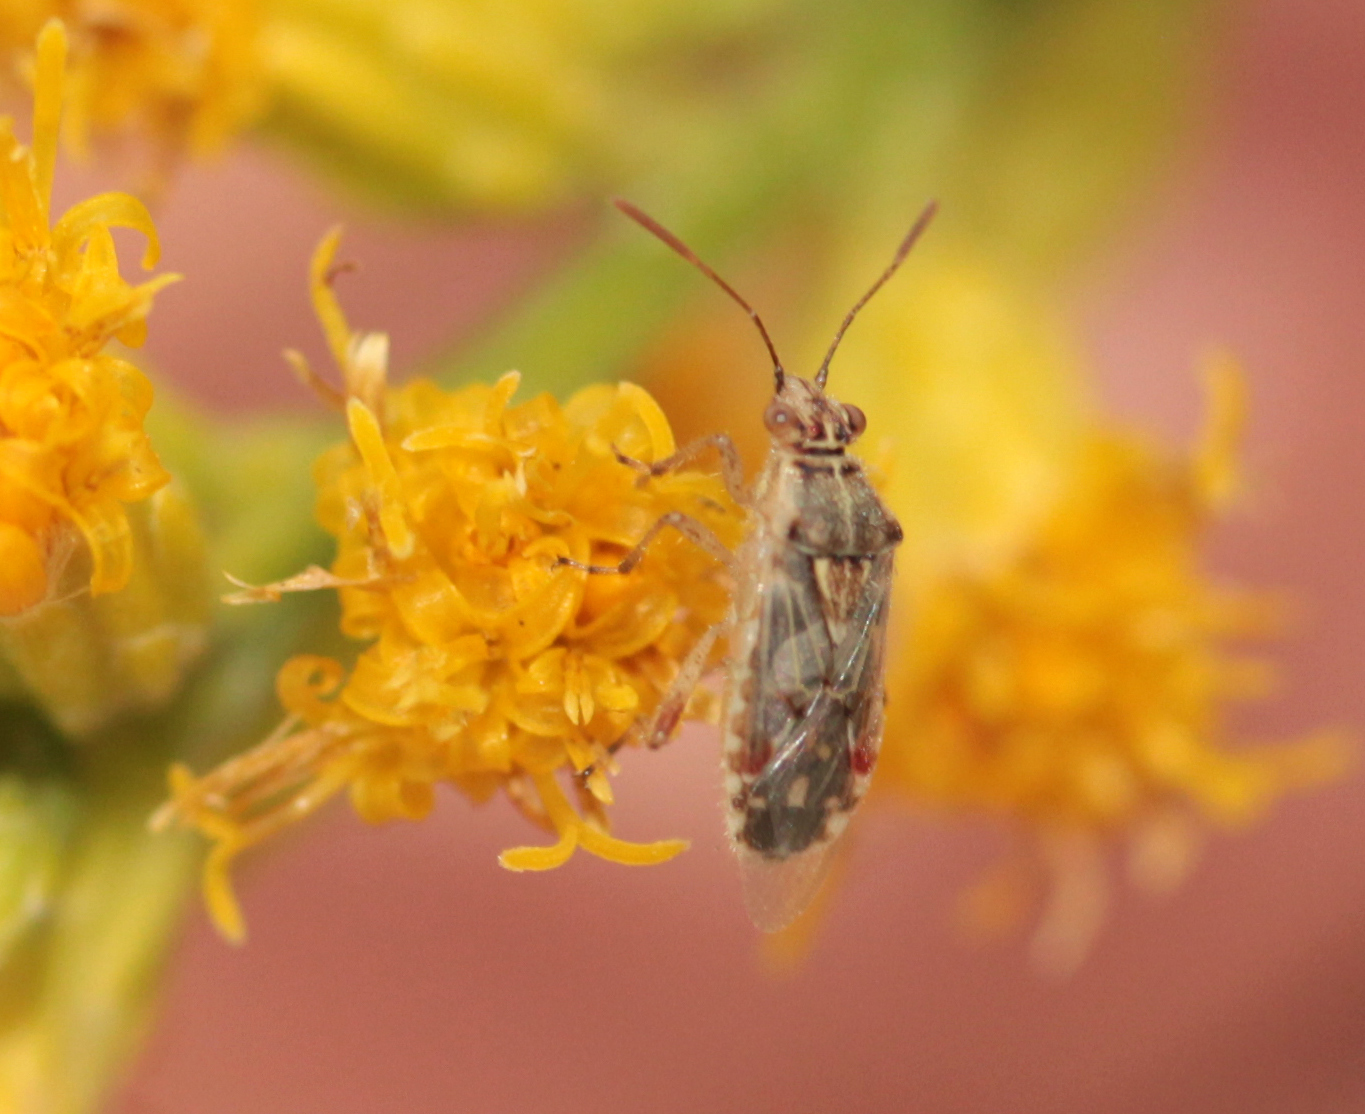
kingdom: Animalia
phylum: Arthropoda
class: Insecta
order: Hemiptera
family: Rhopalidae
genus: Liorhyssus
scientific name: Liorhyssus hyalinus
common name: Scentless plant bug
